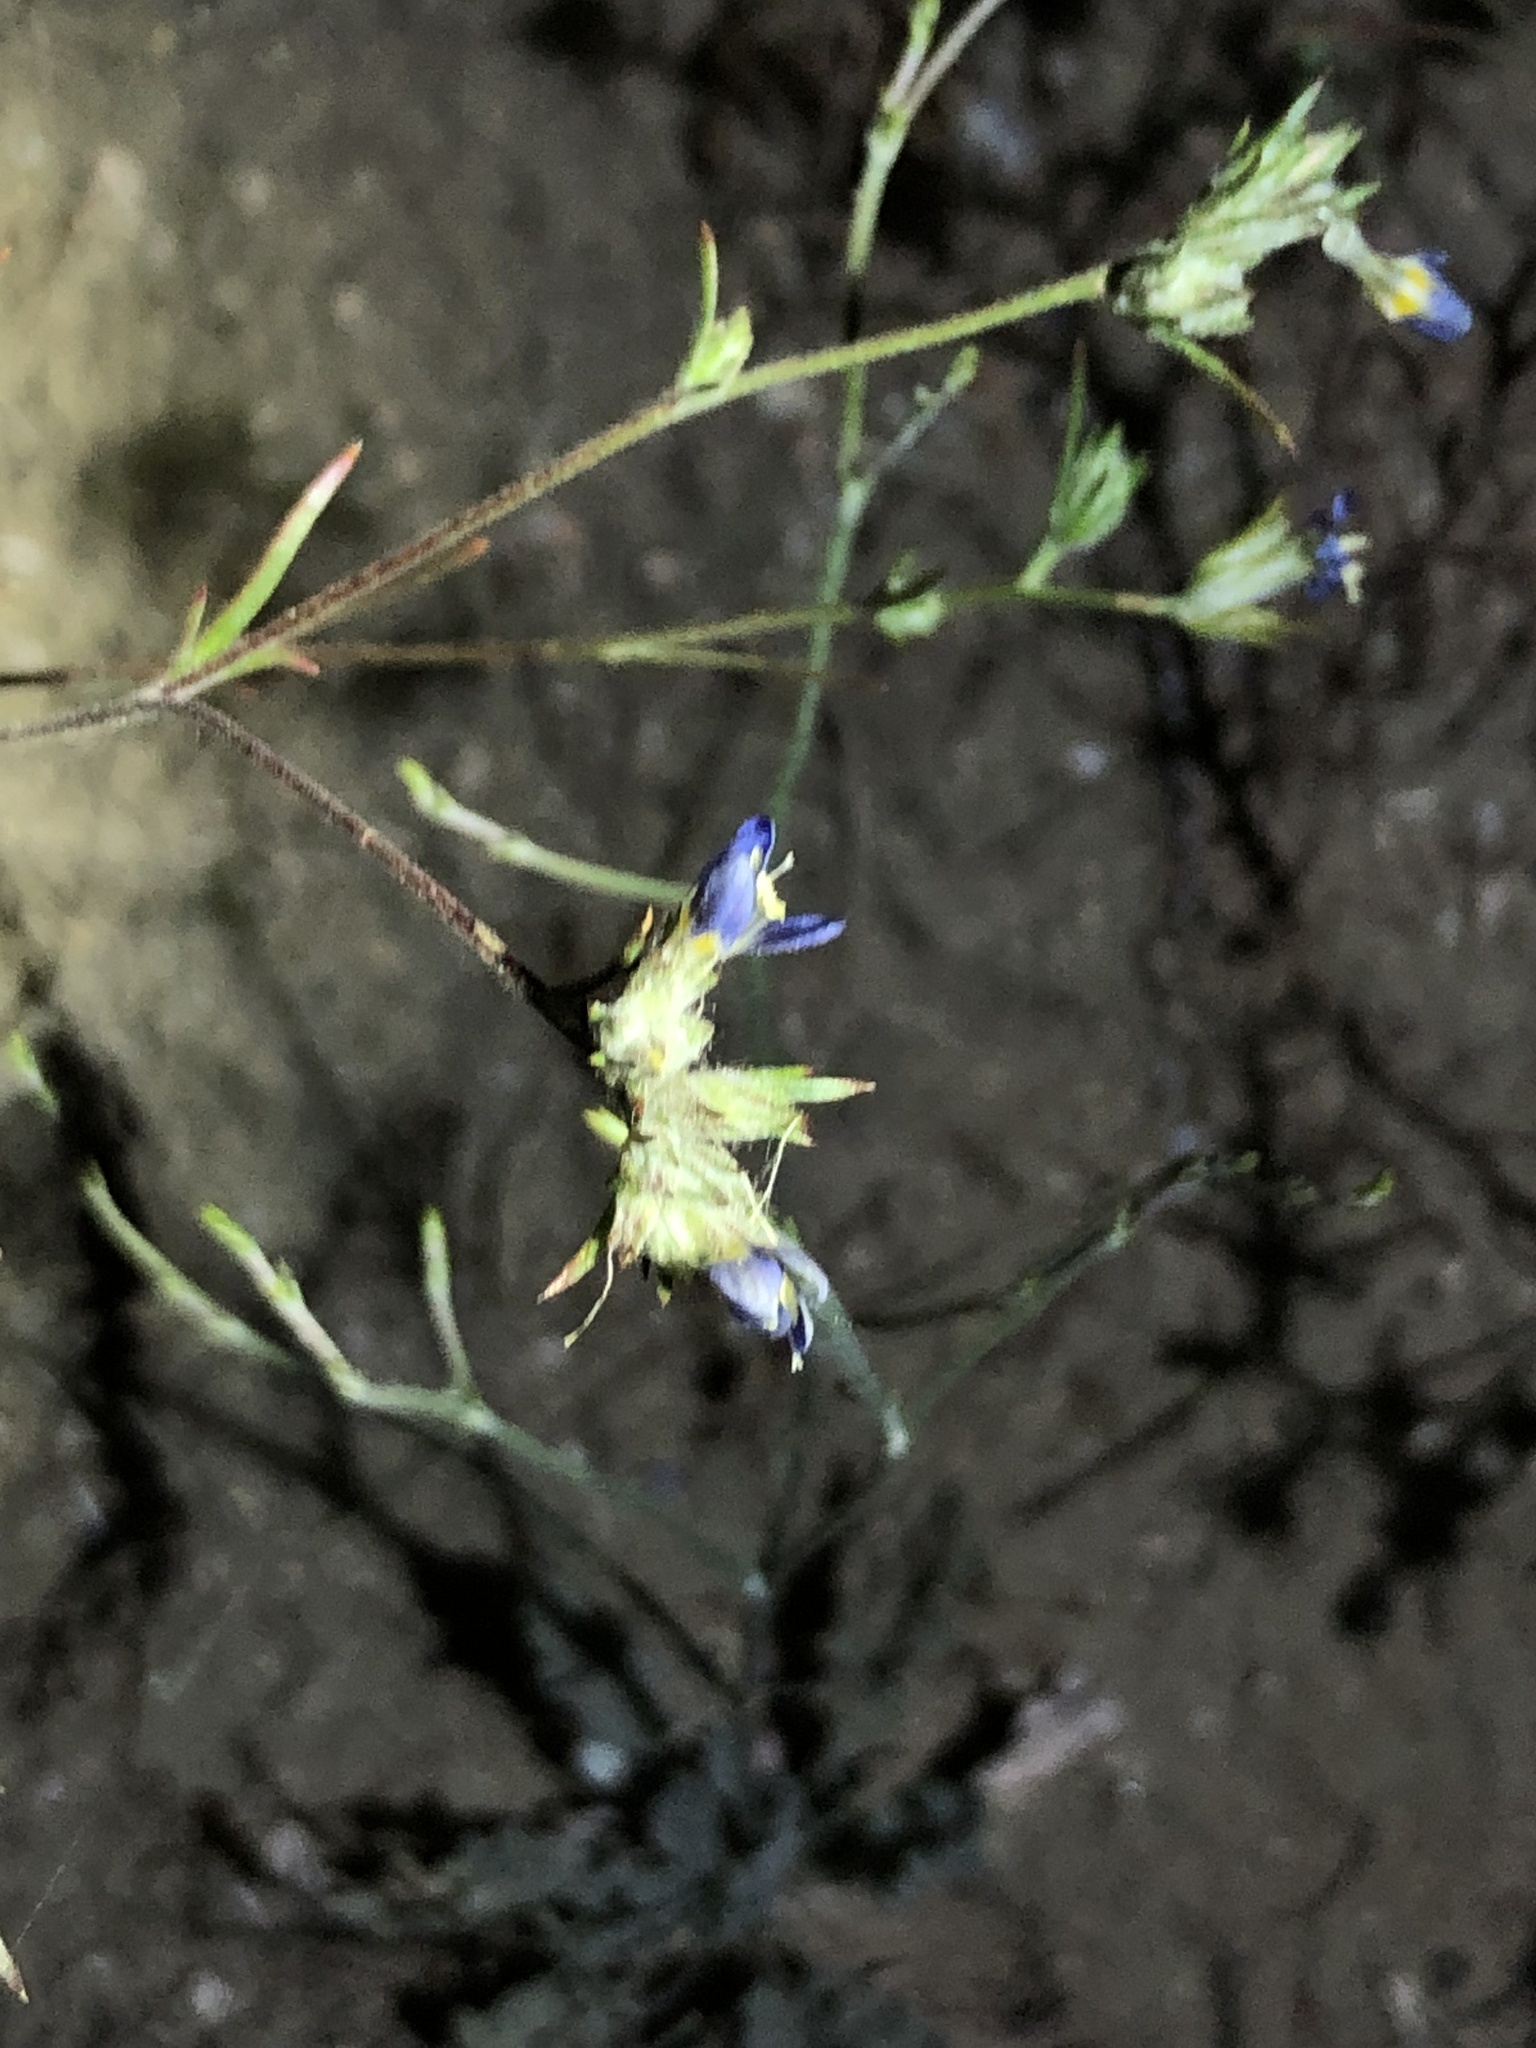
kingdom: Plantae
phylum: Tracheophyta
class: Magnoliopsida
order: Ericales
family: Polemoniaceae
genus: Eriastrum
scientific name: Eriastrum sapphirinum
